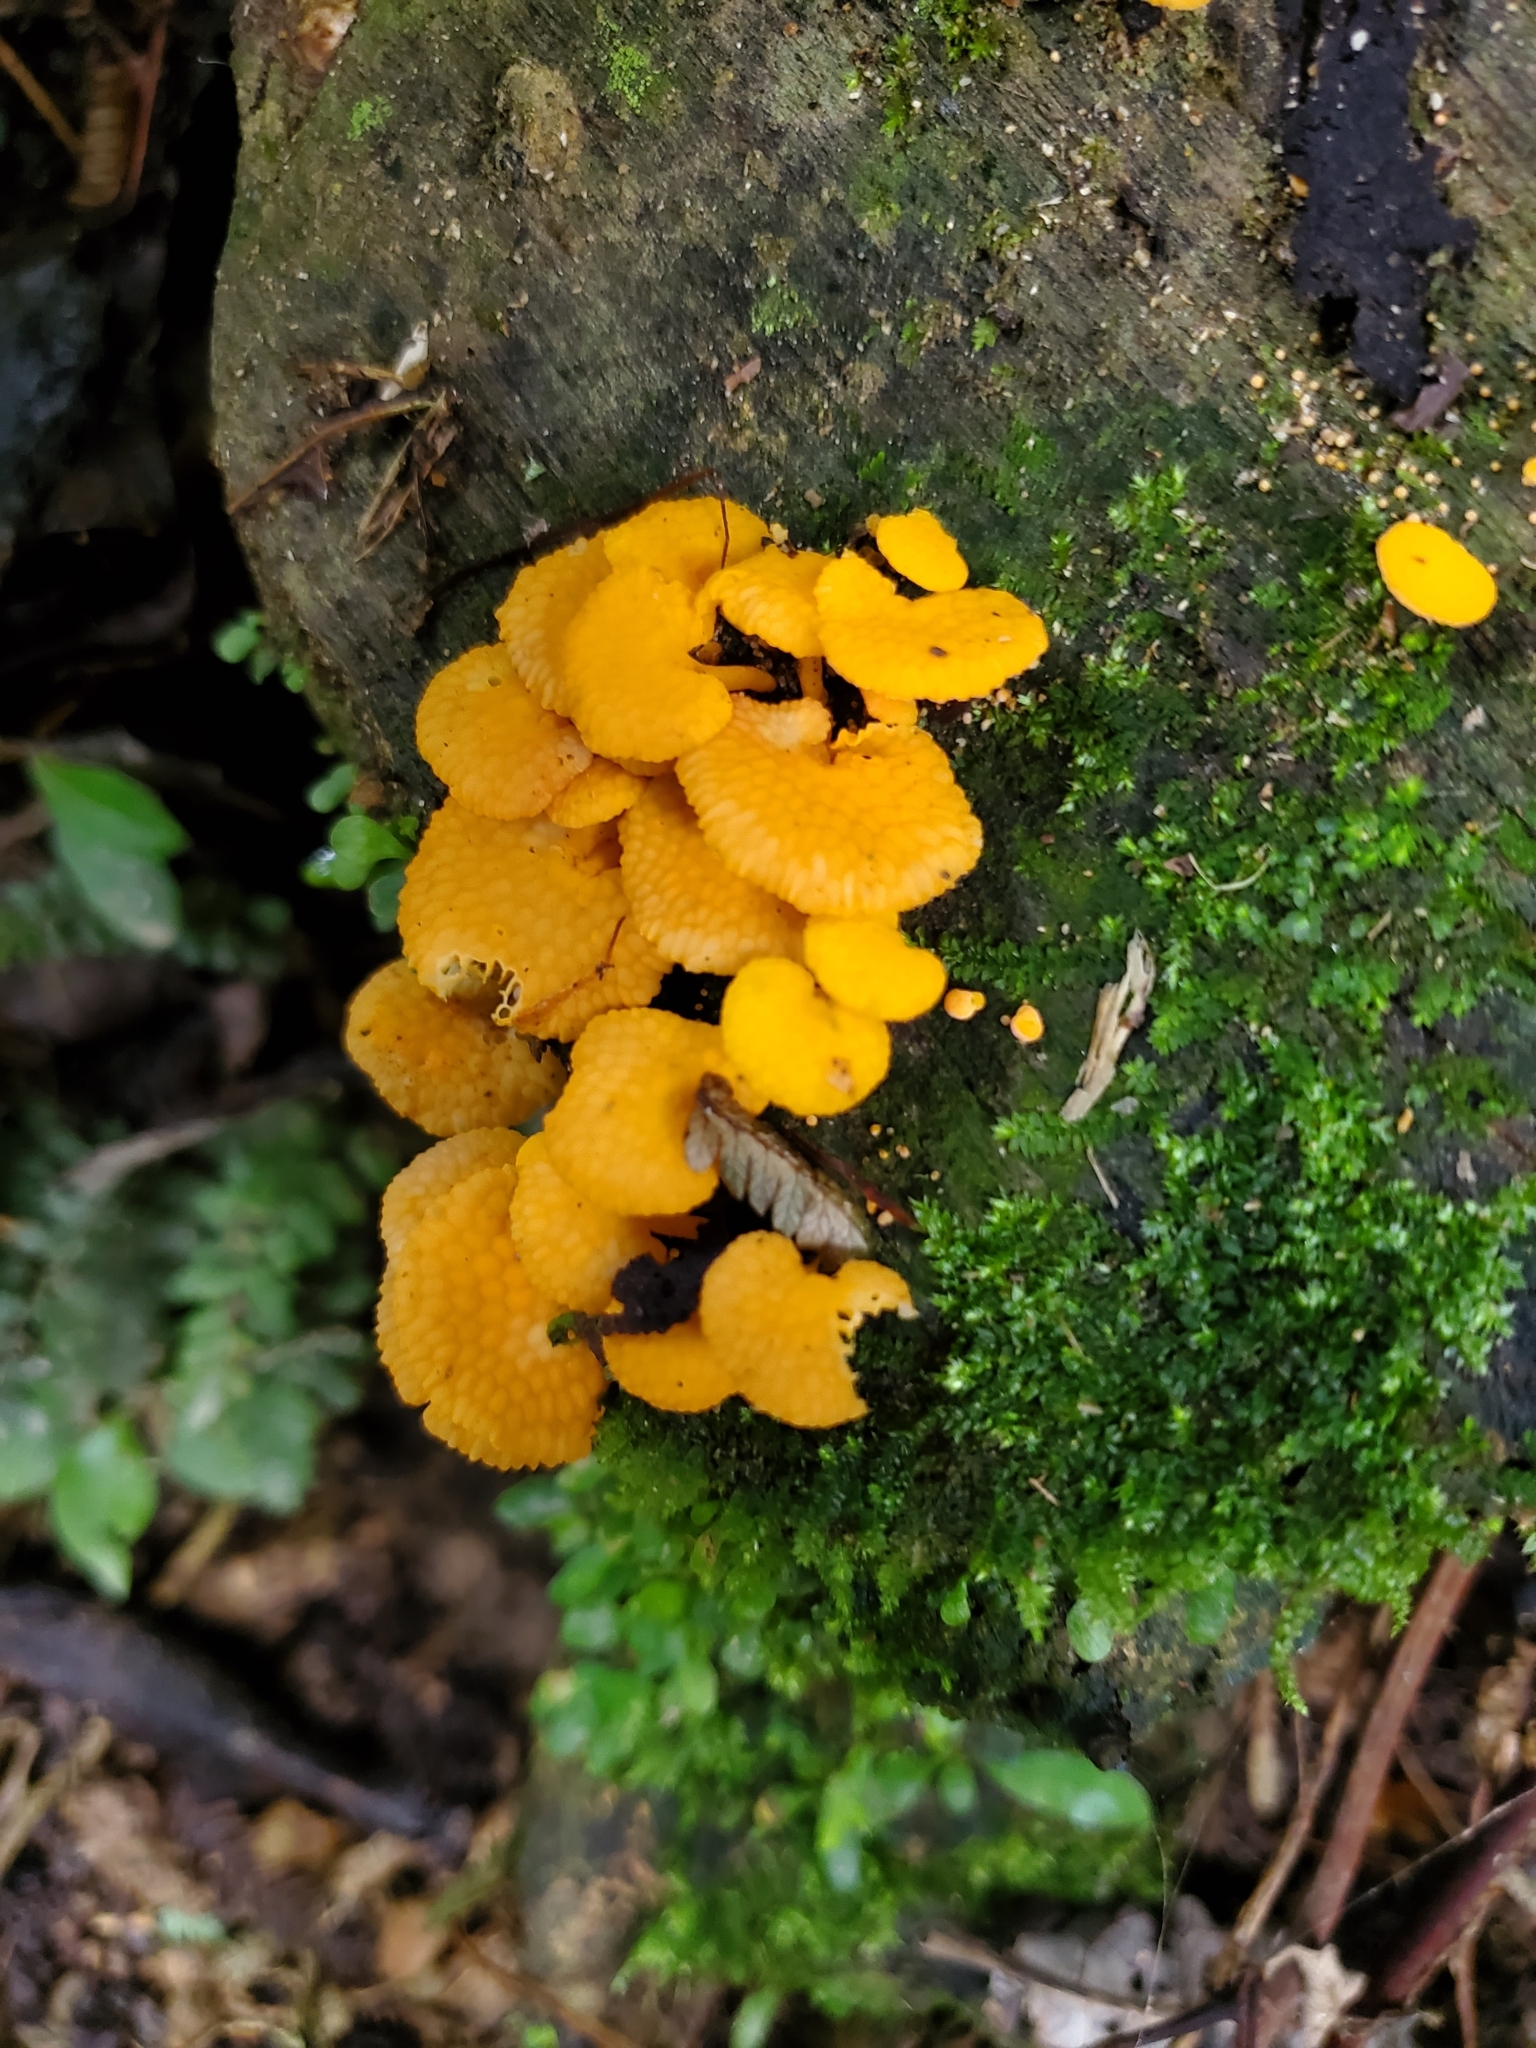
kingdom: Fungi
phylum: Basidiomycota
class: Agaricomycetes
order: Agaricales
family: Mycenaceae
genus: Favolaschia
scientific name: Favolaschia claudopus
